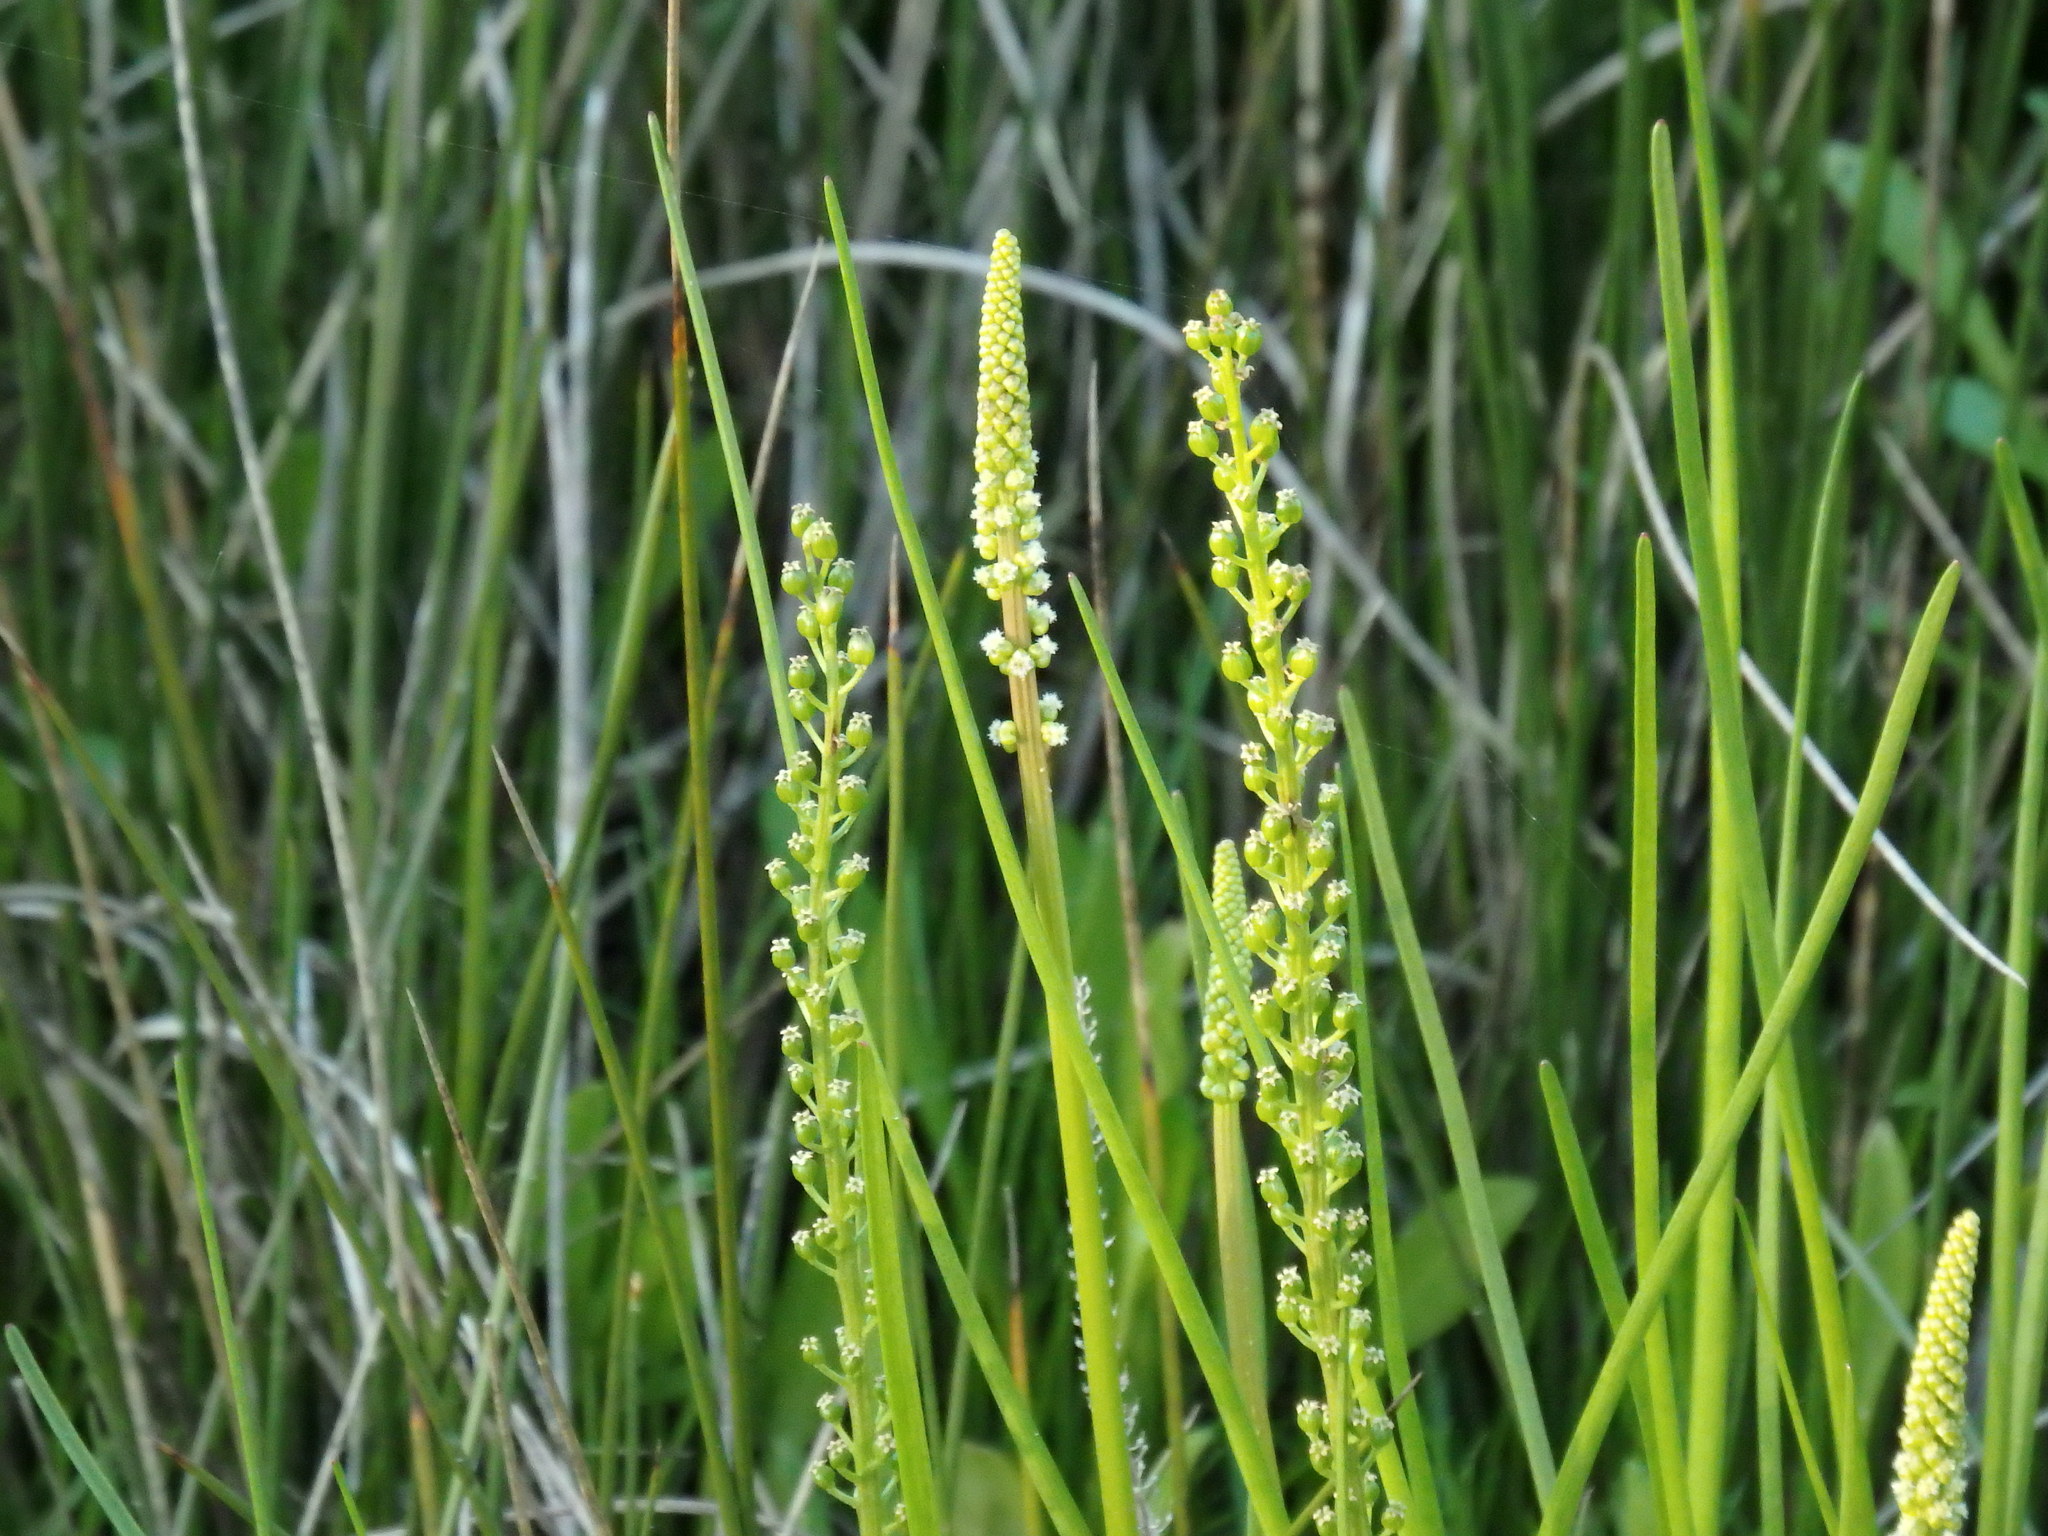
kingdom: Plantae
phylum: Tracheophyta
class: Liliopsida
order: Alismatales
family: Juncaginaceae
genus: Triglochin
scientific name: Triglochin maritima
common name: Sea arrowgrass
